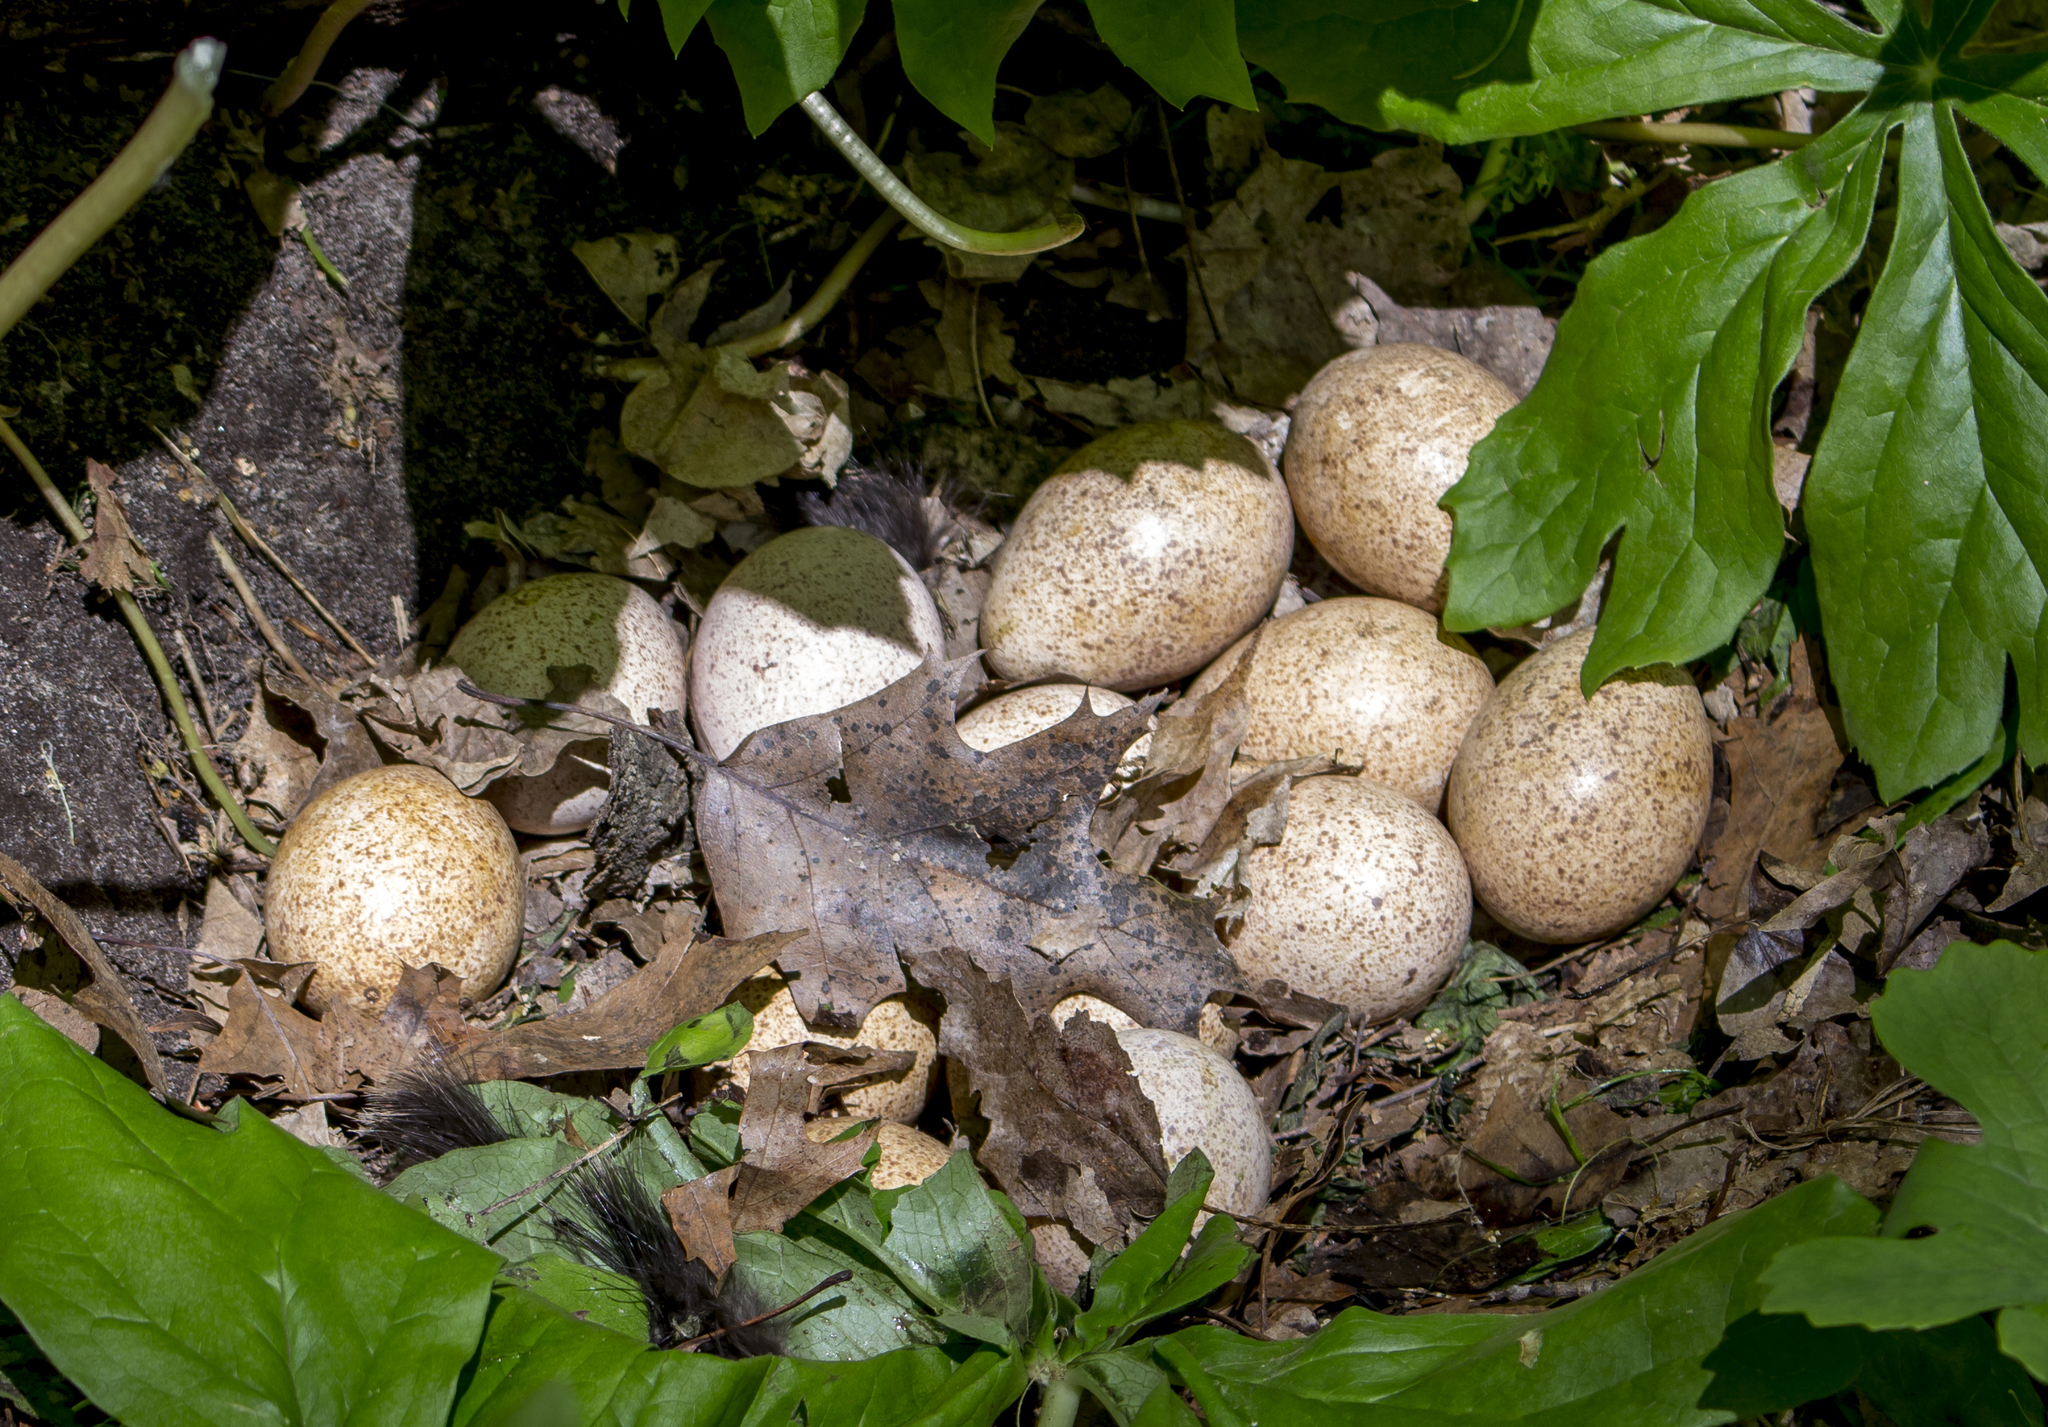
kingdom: Animalia
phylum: Chordata
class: Aves
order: Galliformes
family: Phasianidae
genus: Meleagris
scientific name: Meleagris gallopavo
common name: Wild turkey
